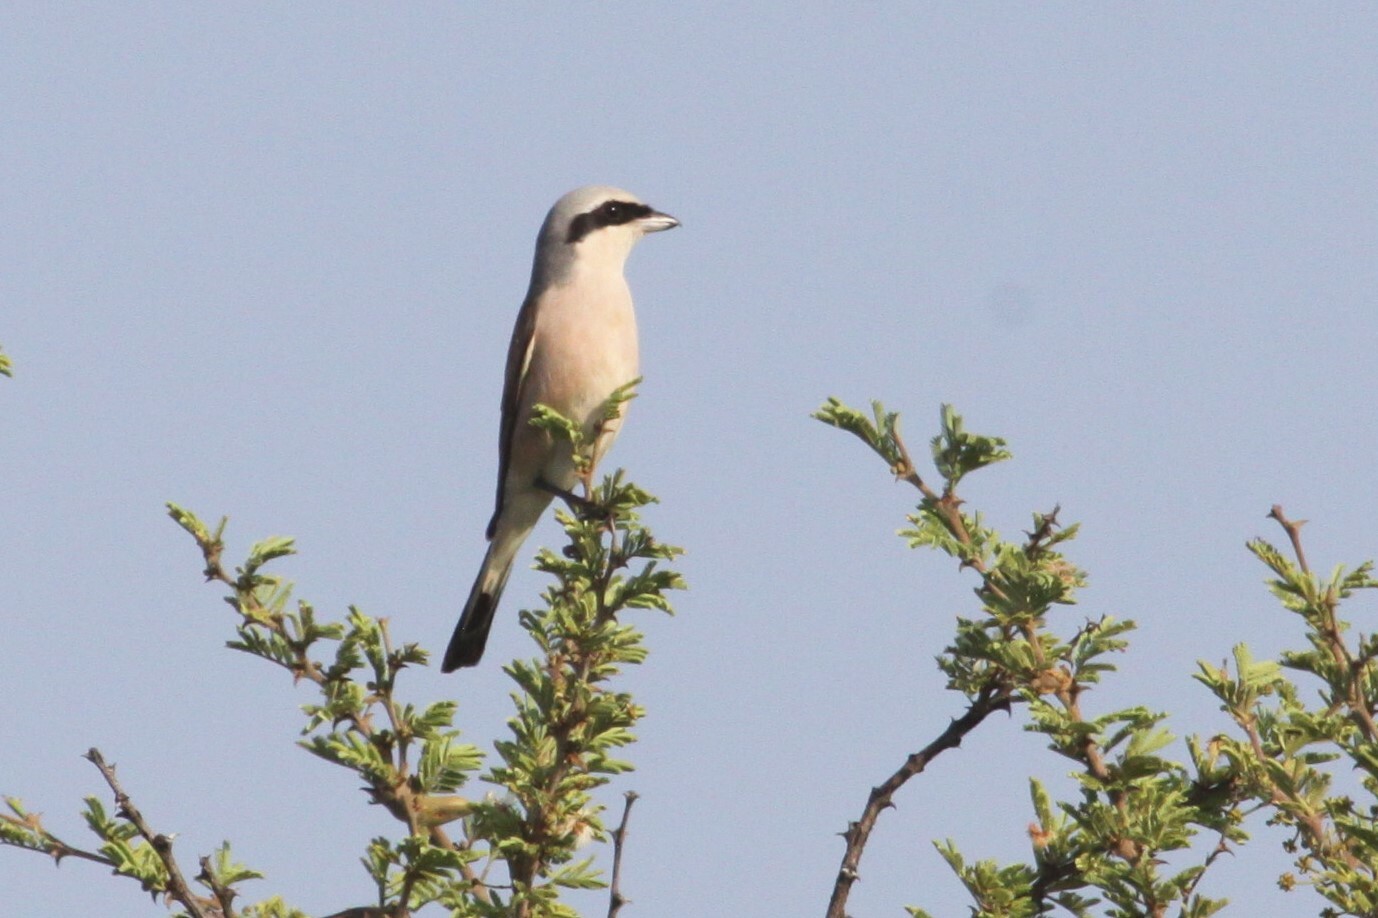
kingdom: Animalia
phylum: Chordata
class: Aves
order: Passeriformes
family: Laniidae
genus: Lanius
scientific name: Lanius collurio
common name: Red-backed shrike
